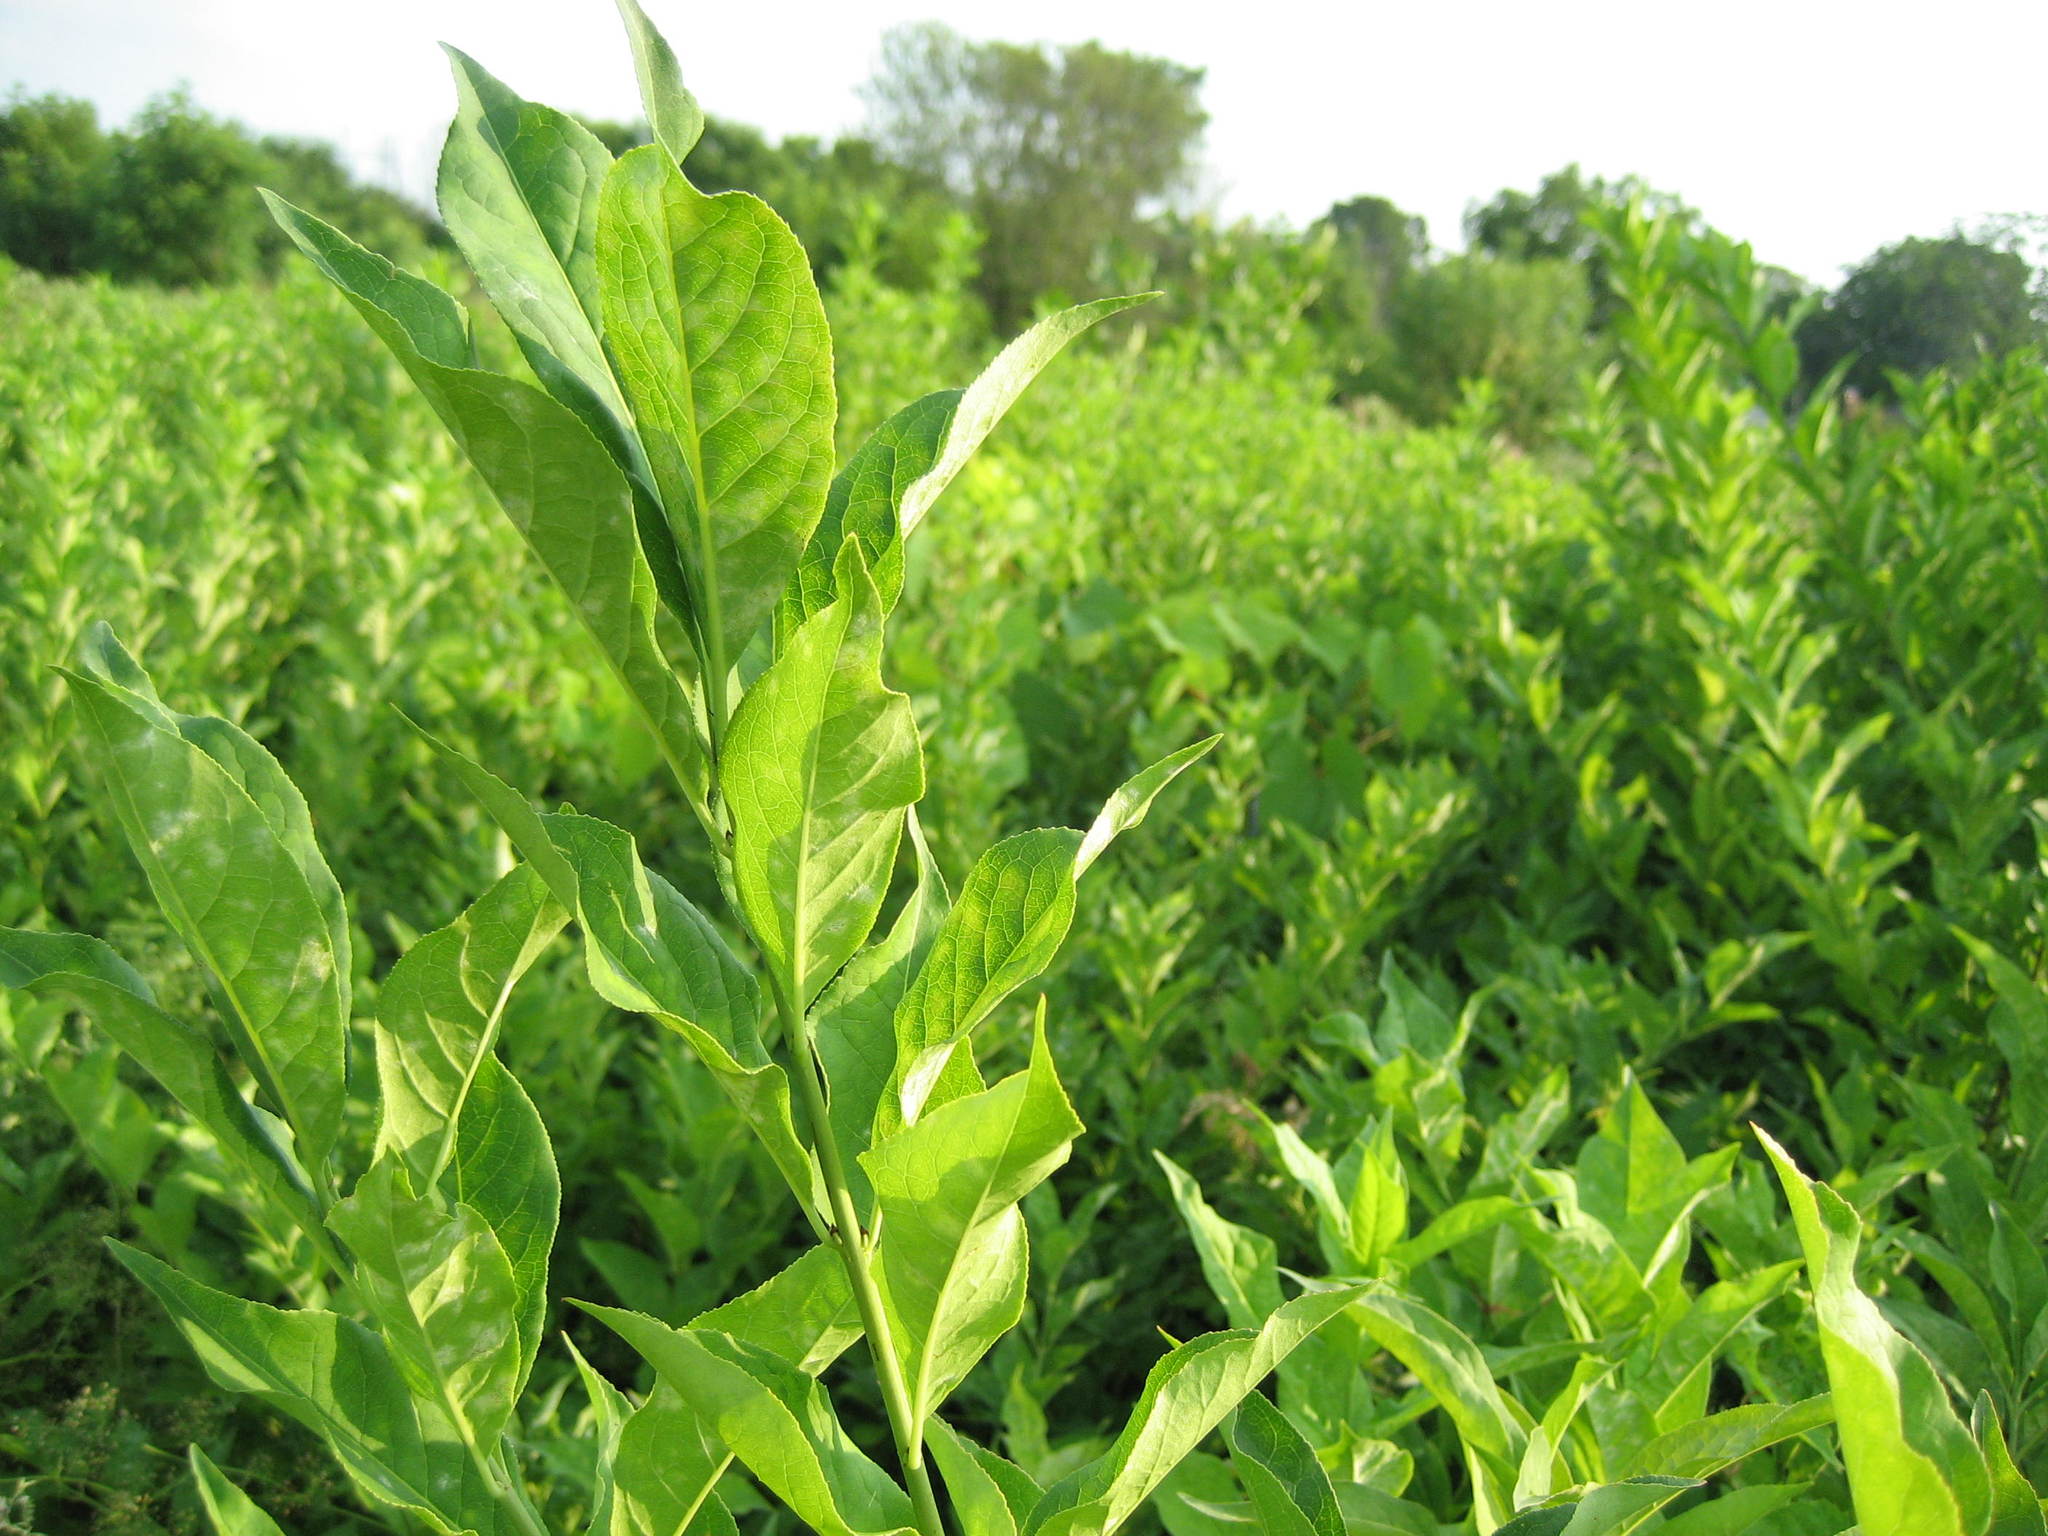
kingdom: Plantae
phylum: Tracheophyta
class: Magnoliopsida
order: Celastrales
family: Celastraceae
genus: Euonymus
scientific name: Euonymus europaeus
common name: Spindle
